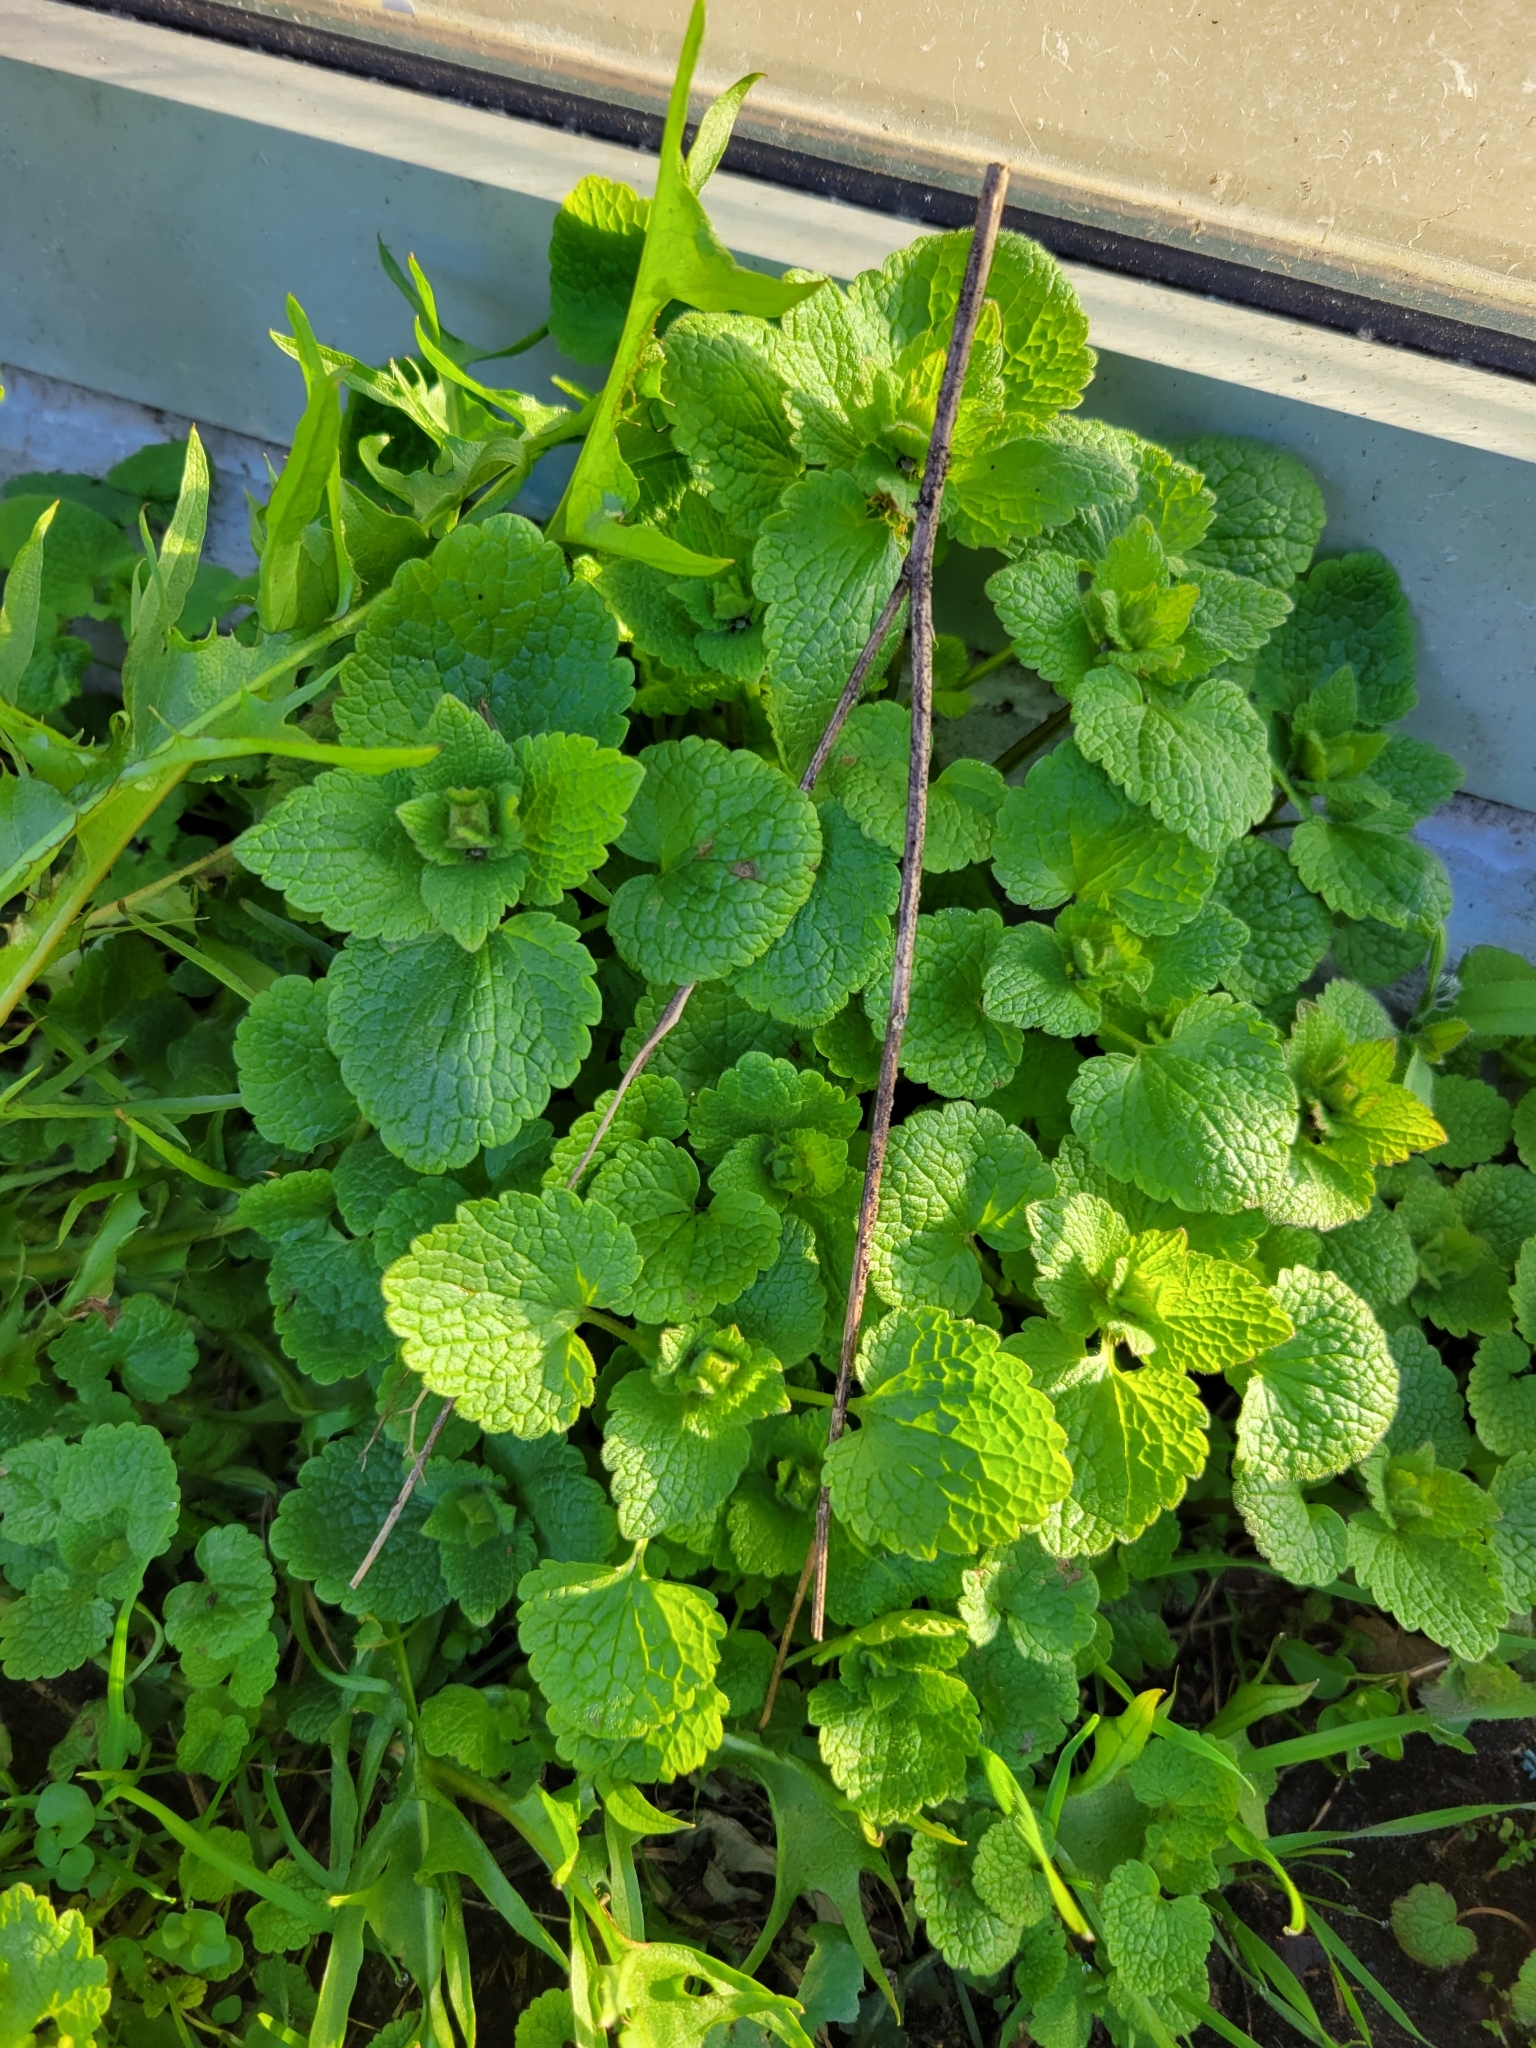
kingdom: Plantae
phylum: Tracheophyta
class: Magnoliopsida
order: Lamiales
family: Lamiaceae
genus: Lamium
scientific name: Lamium purpureum
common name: Red dead-nettle
